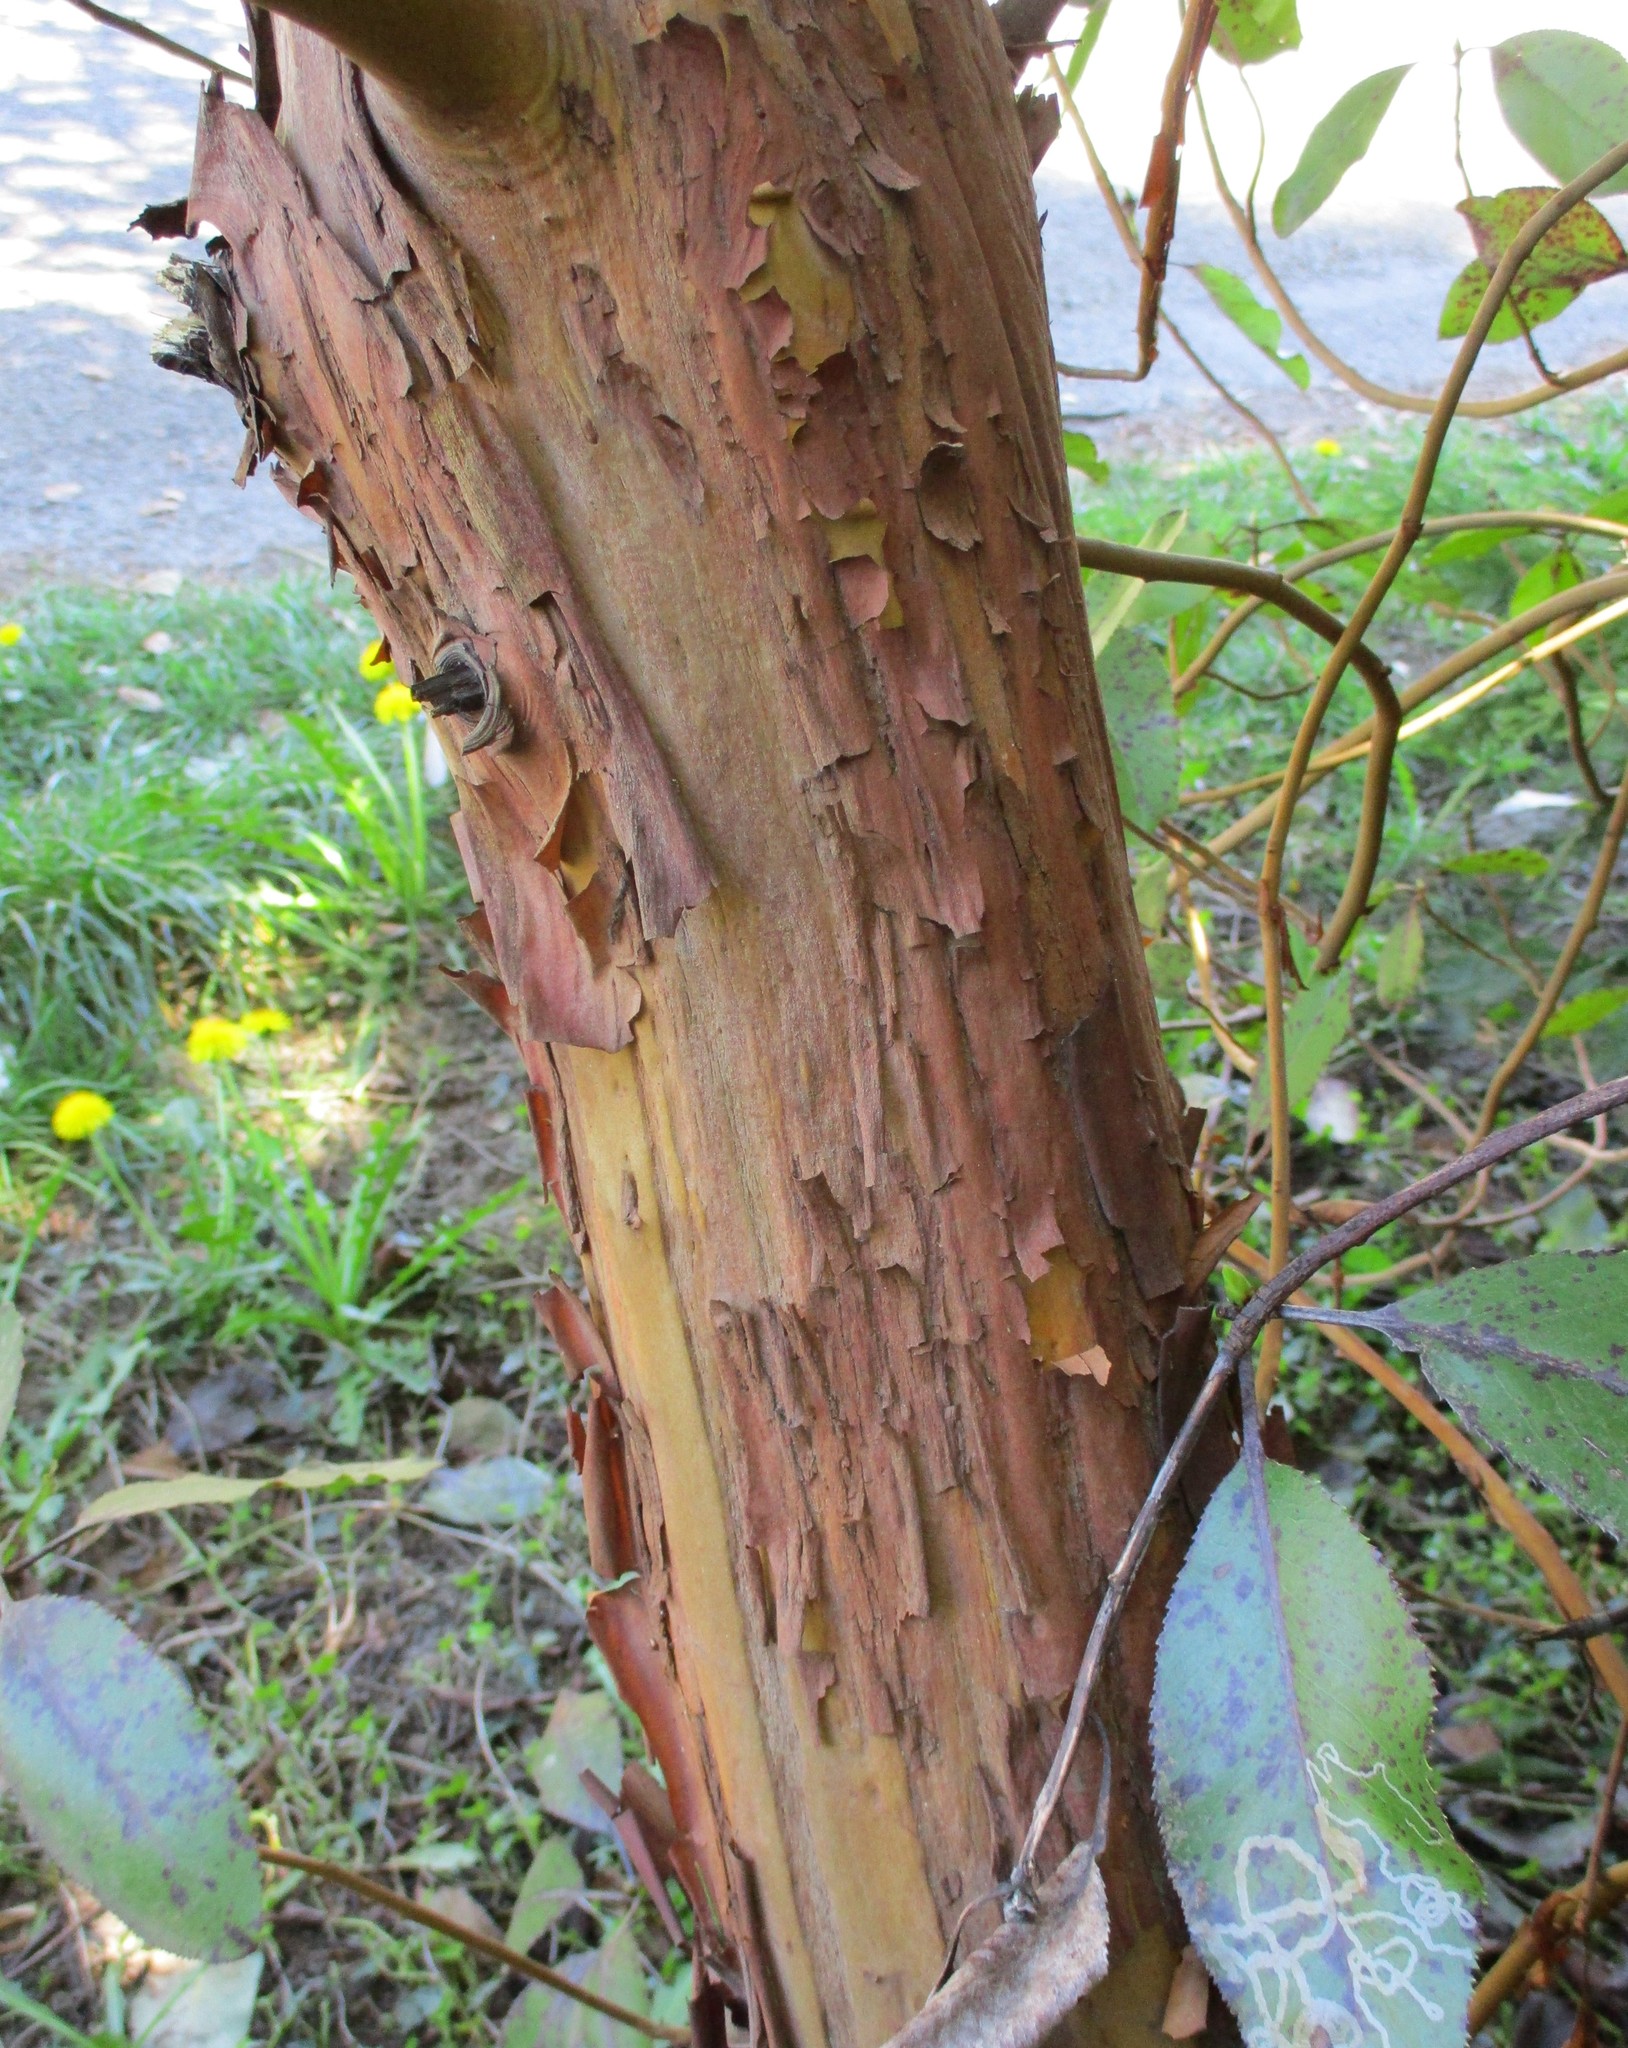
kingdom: Plantae
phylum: Tracheophyta
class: Magnoliopsida
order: Ericales
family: Ericaceae
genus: Arbutus
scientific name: Arbutus menziesii
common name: Pacific madrone
